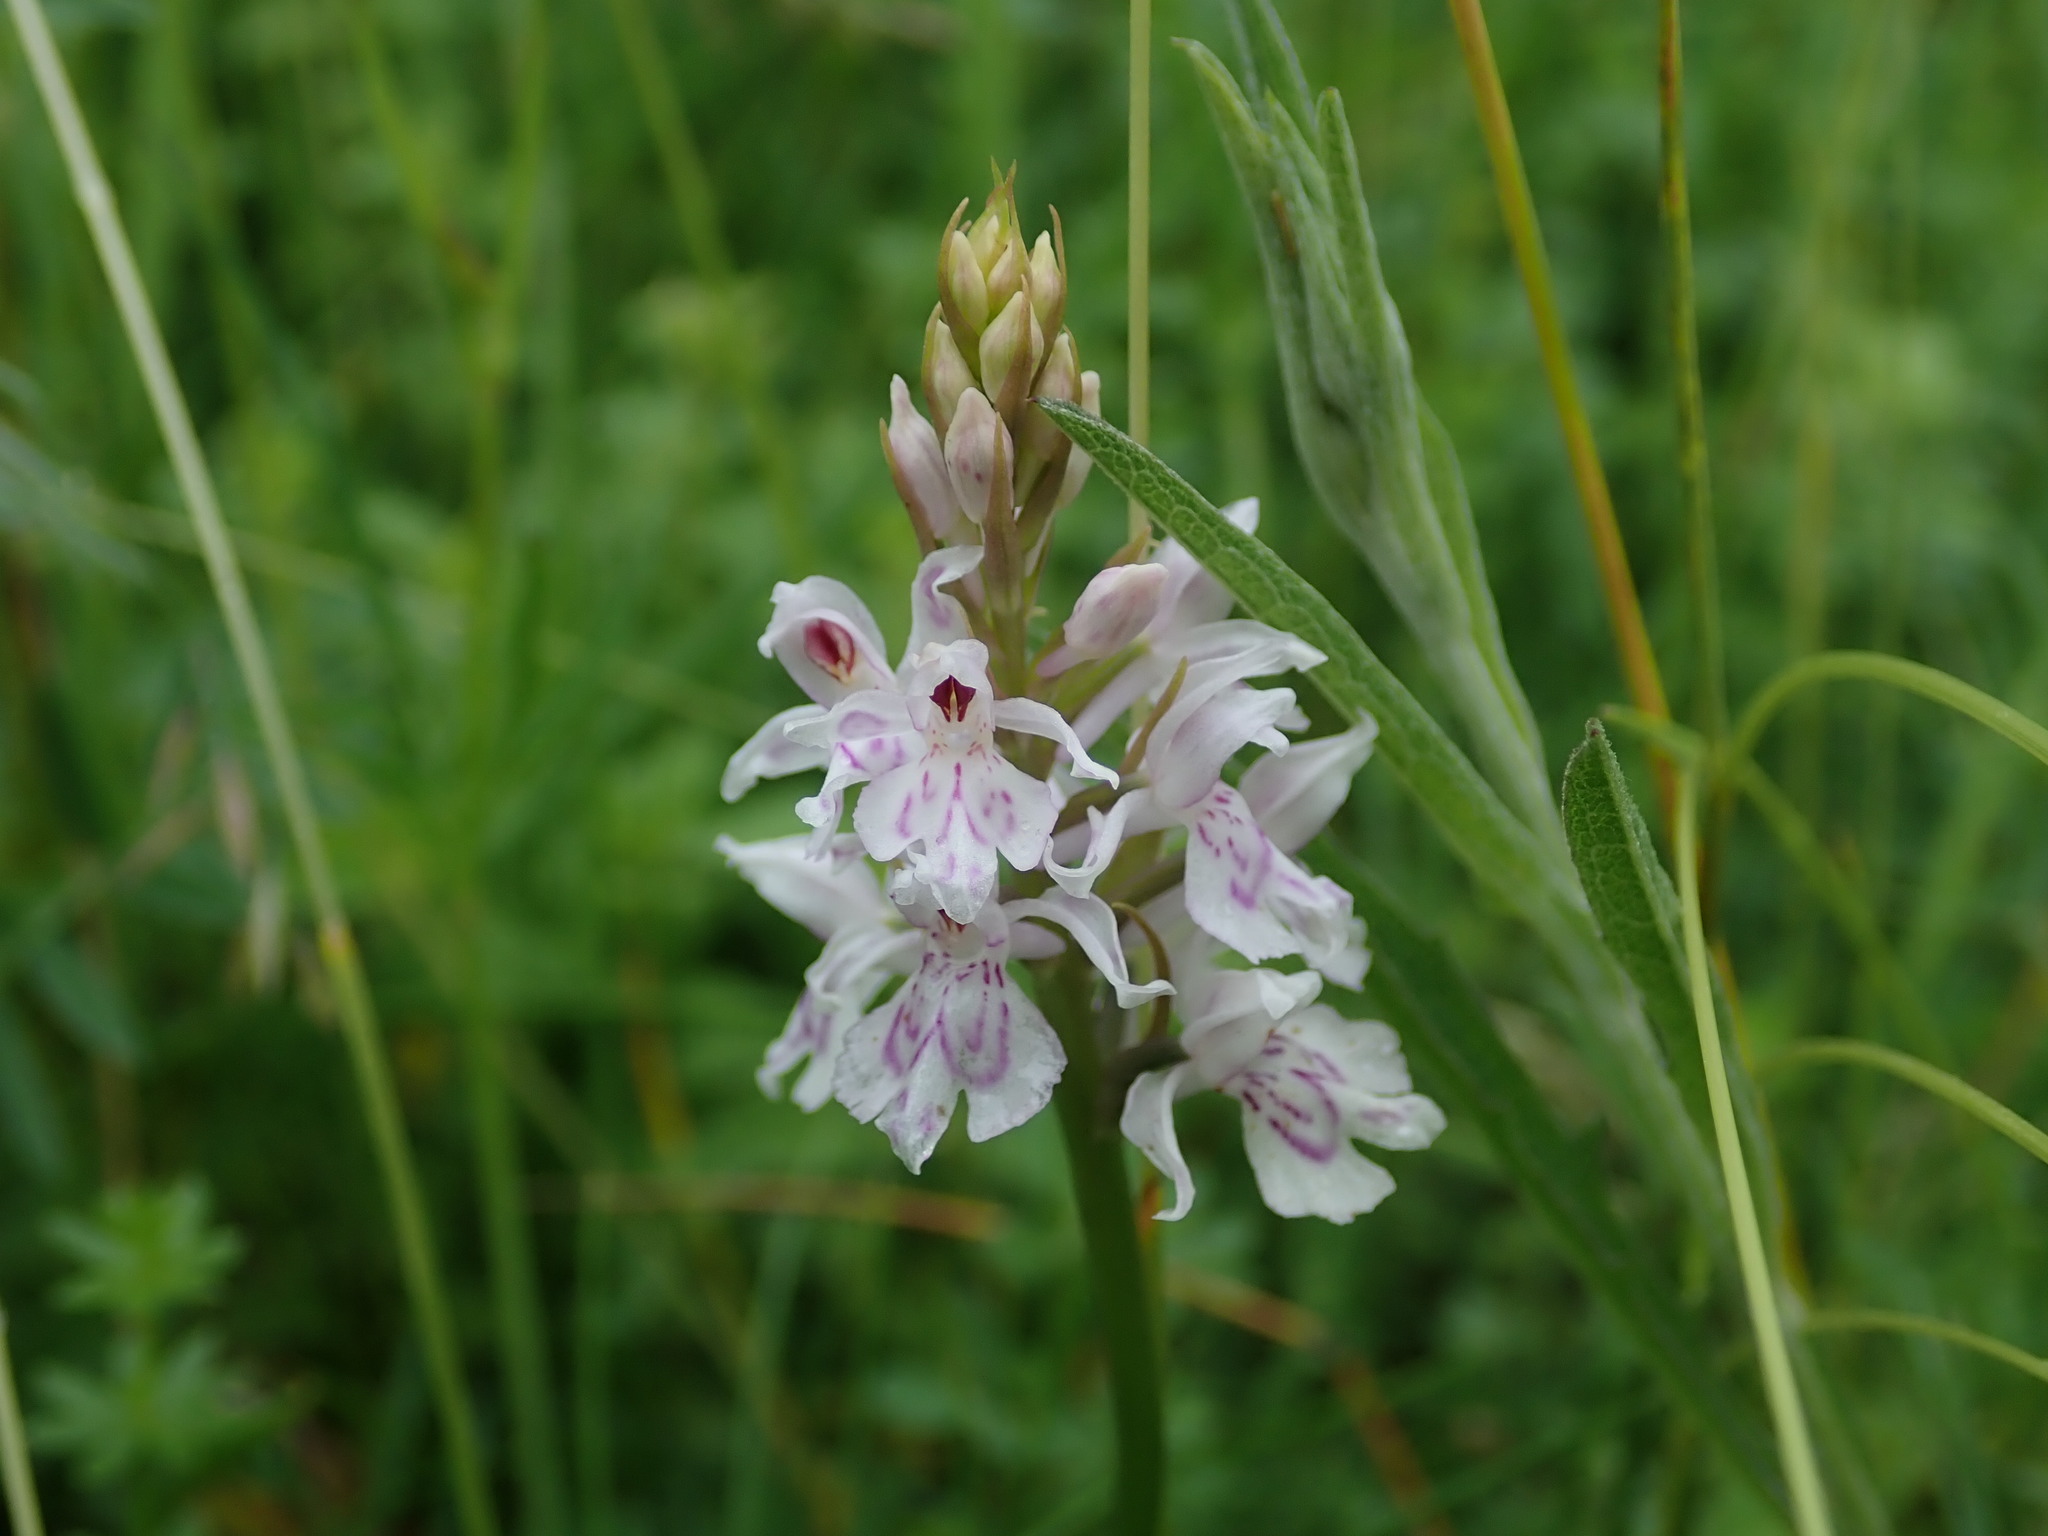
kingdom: Plantae
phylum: Tracheophyta
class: Liliopsida
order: Asparagales
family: Orchidaceae
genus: Dactylorhiza
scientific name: Dactylorhiza maculata
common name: Heath spotted-orchid
